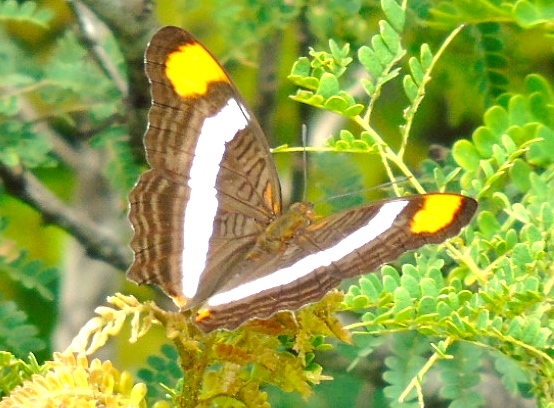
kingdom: Animalia
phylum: Arthropoda
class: Insecta
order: Lepidoptera
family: Nymphalidae
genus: Limenitis
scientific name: Limenitis fessonia
